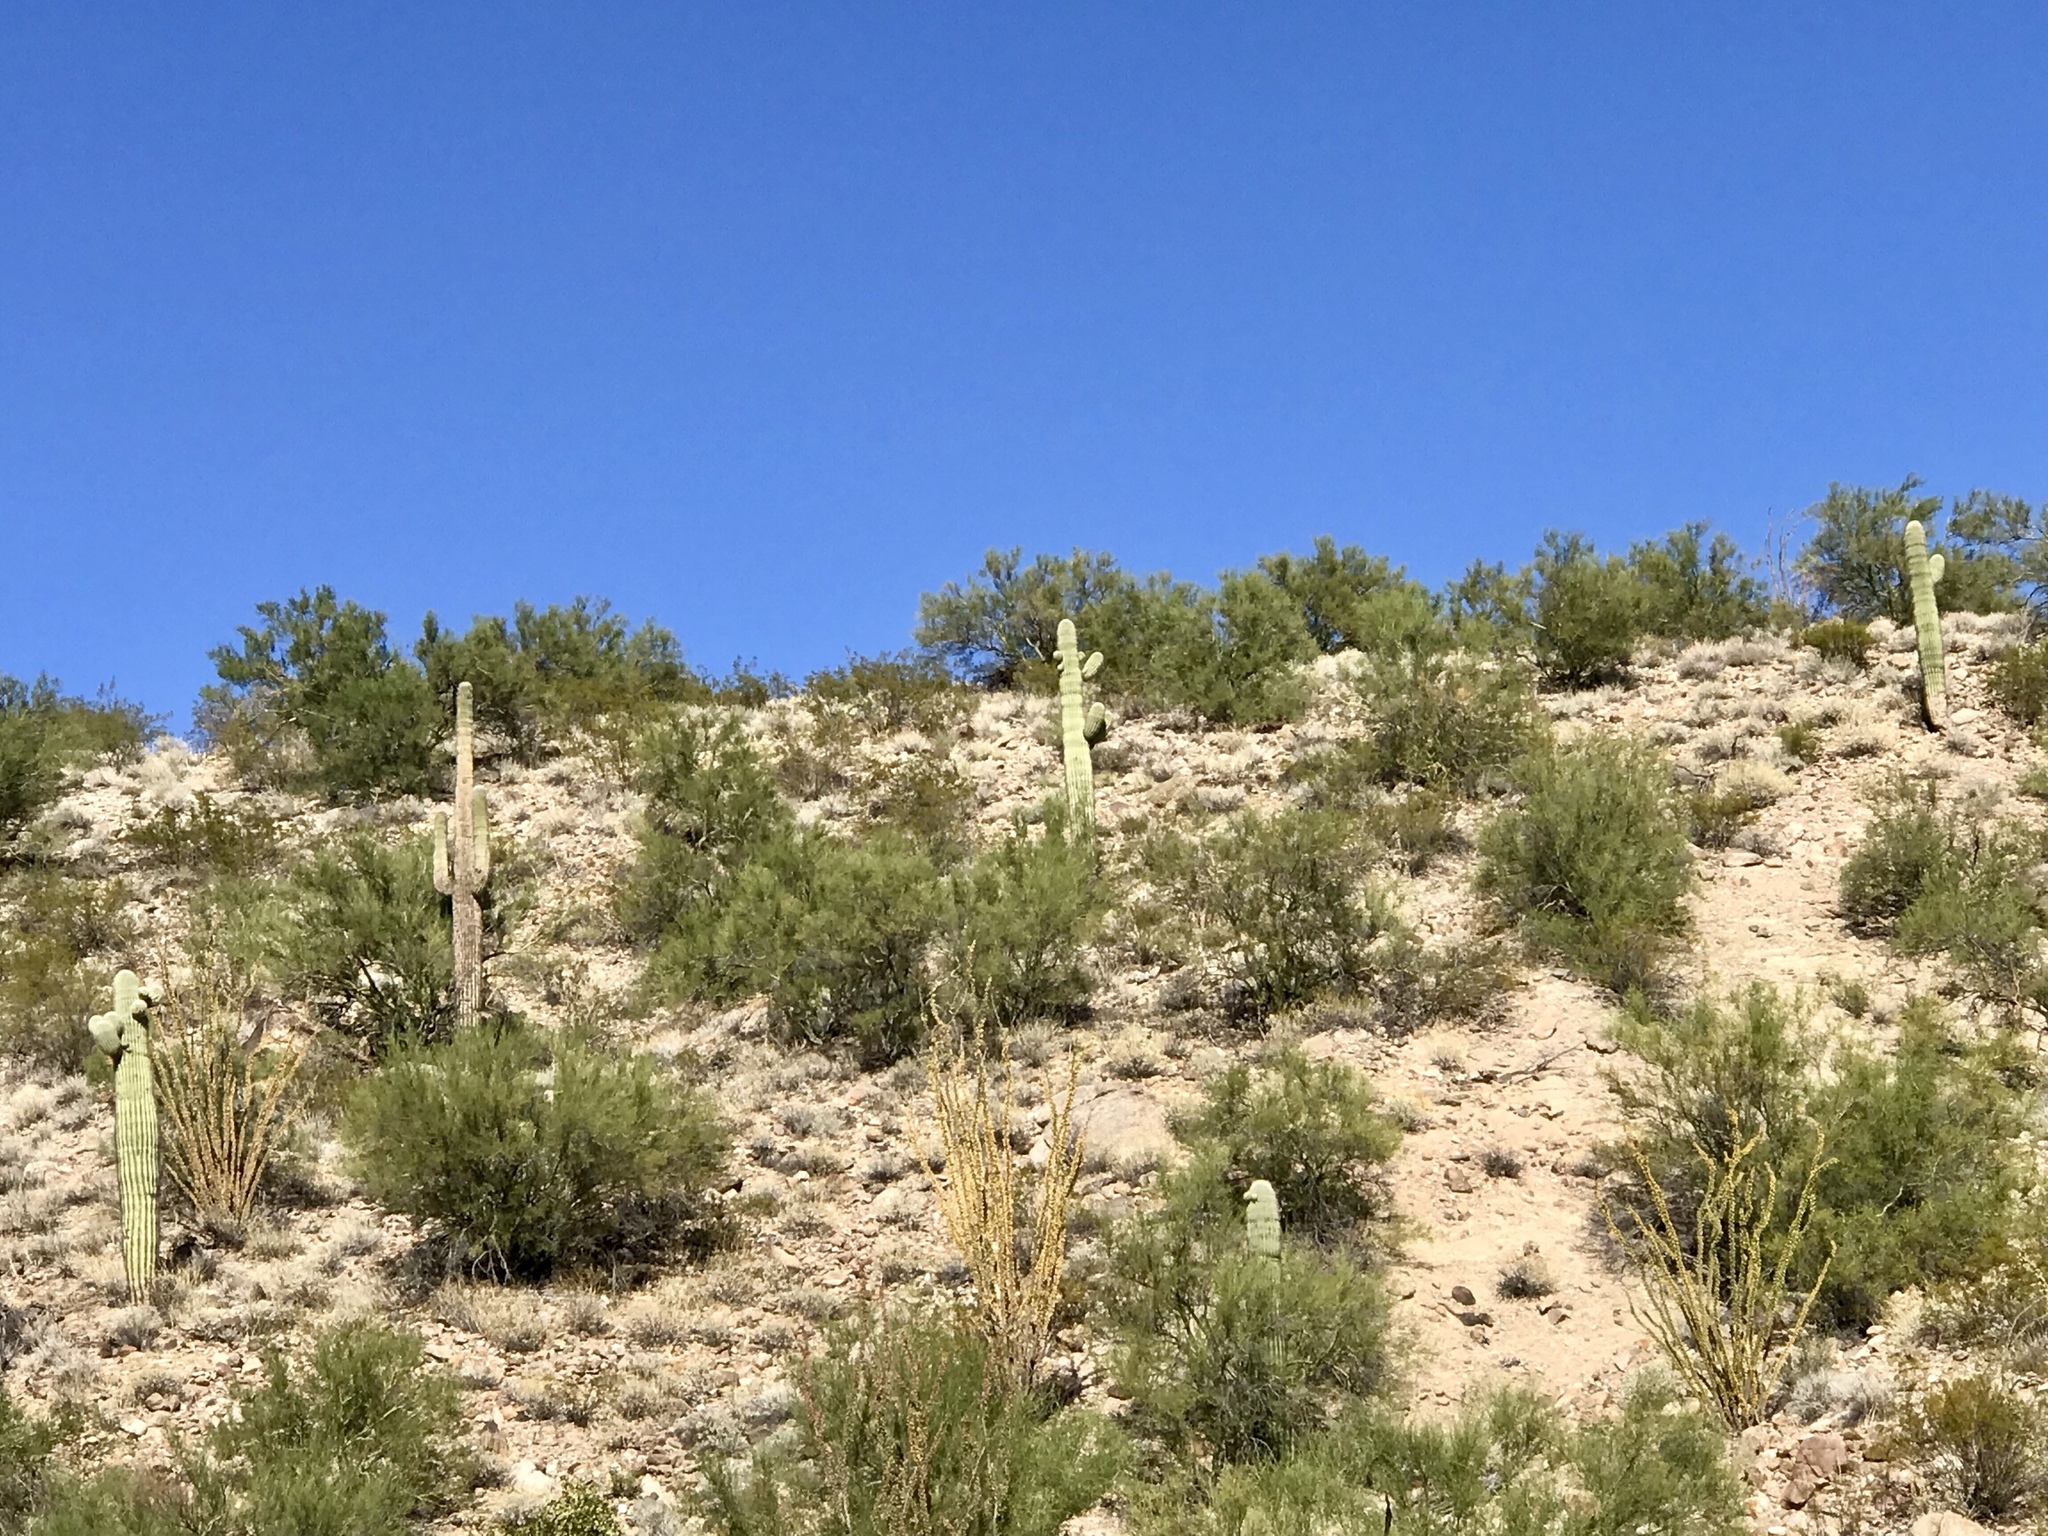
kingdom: Plantae
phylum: Tracheophyta
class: Magnoliopsida
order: Caryophyllales
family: Cactaceae
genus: Carnegiea
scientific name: Carnegiea gigantea
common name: Saguaro
